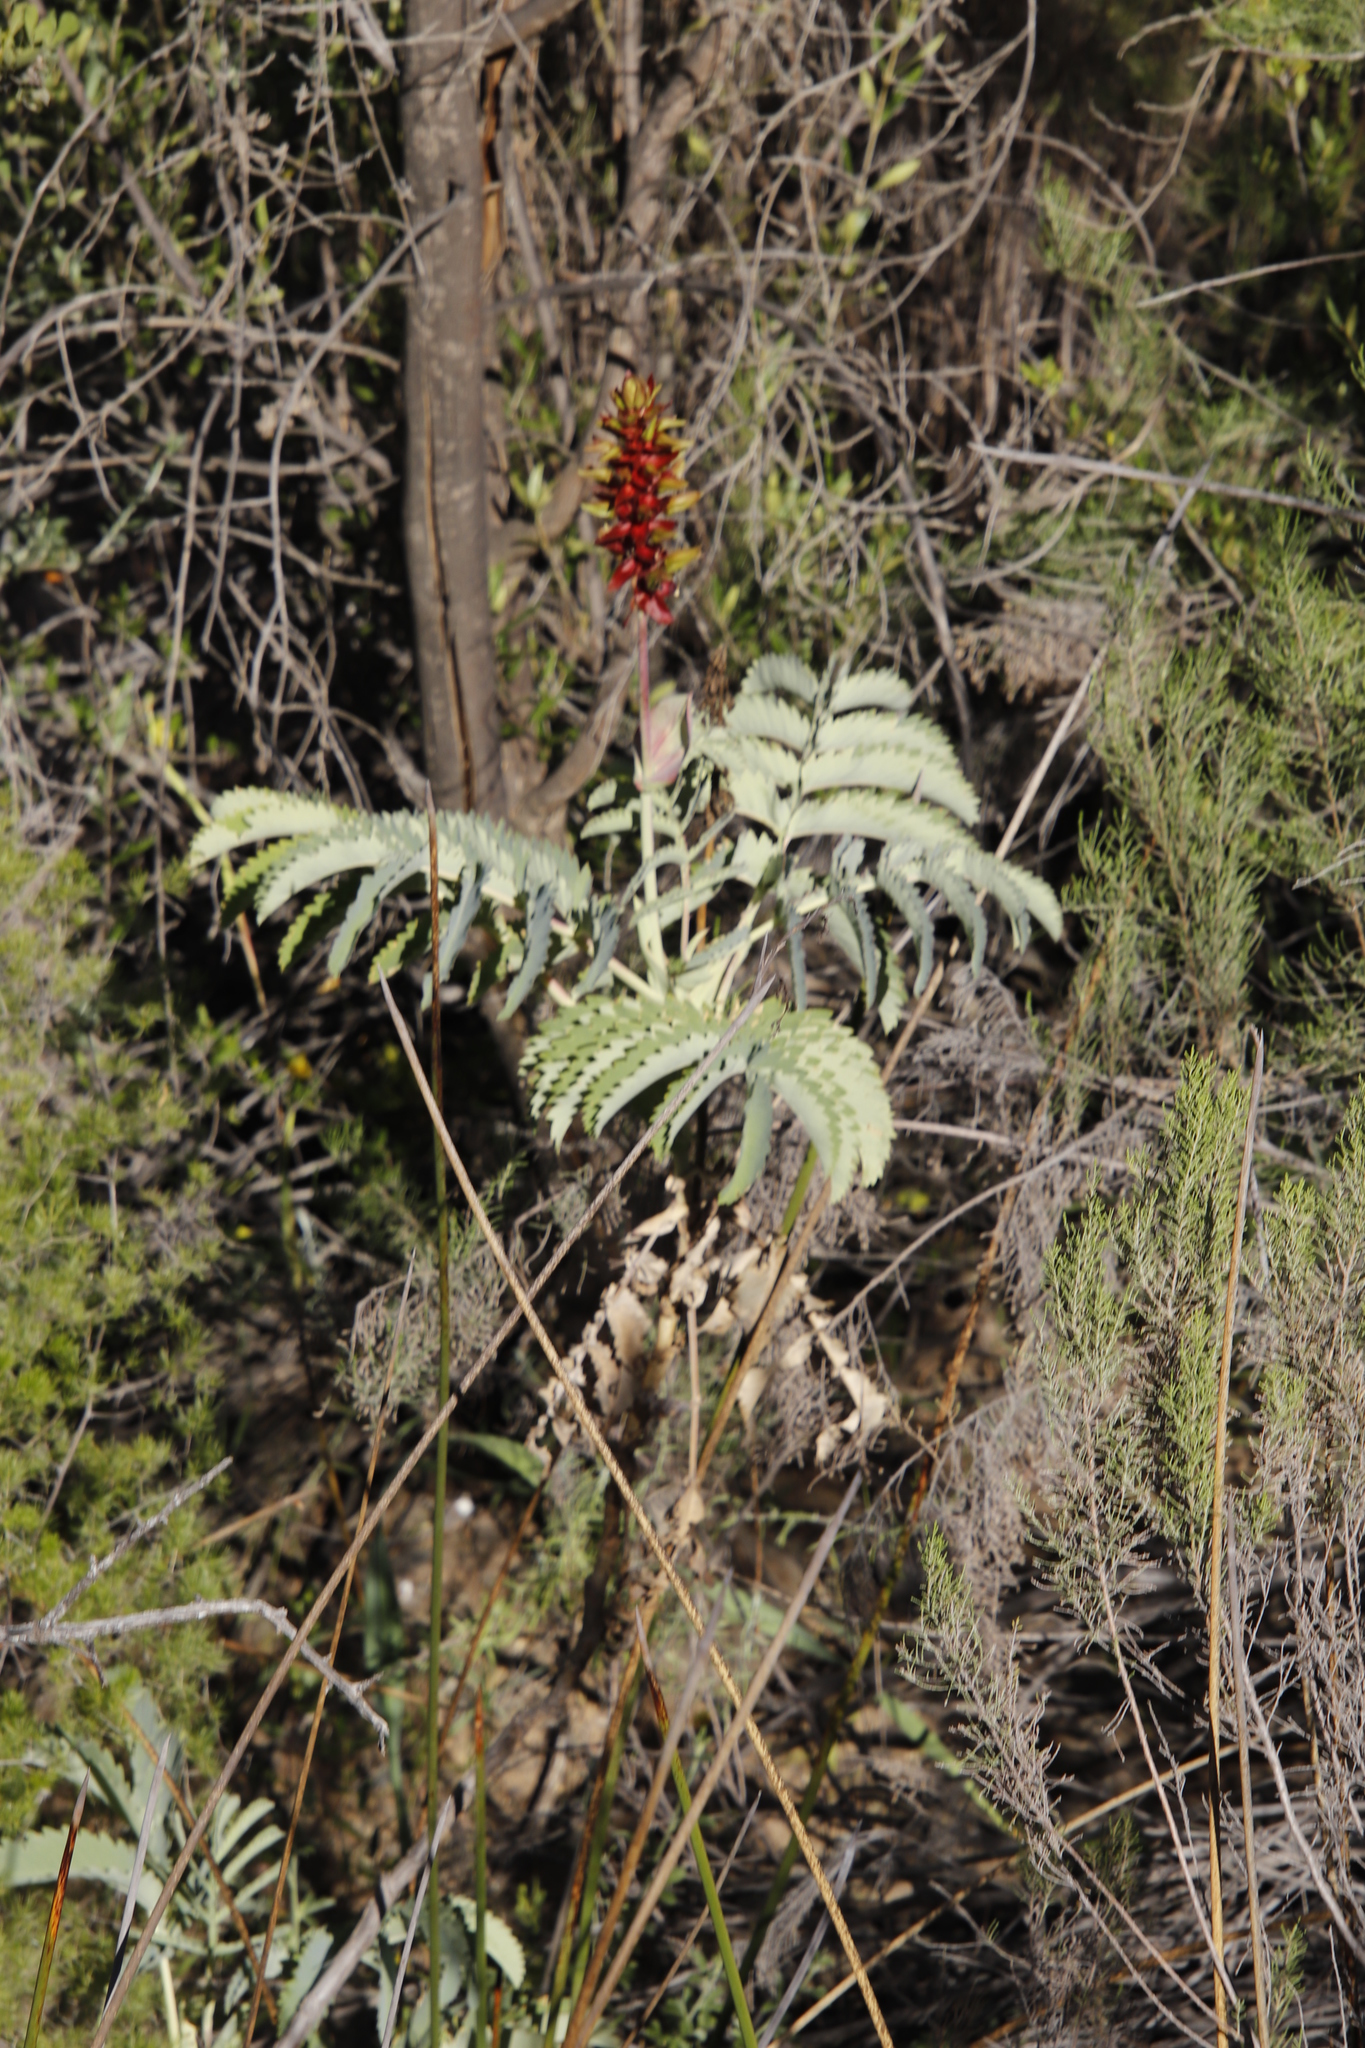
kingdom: Plantae
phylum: Tracheophyta
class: Magnoliopsida
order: Geraniales
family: Melianthaceae
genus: Melianthus
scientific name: Melianthus major
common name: Honey-flower
